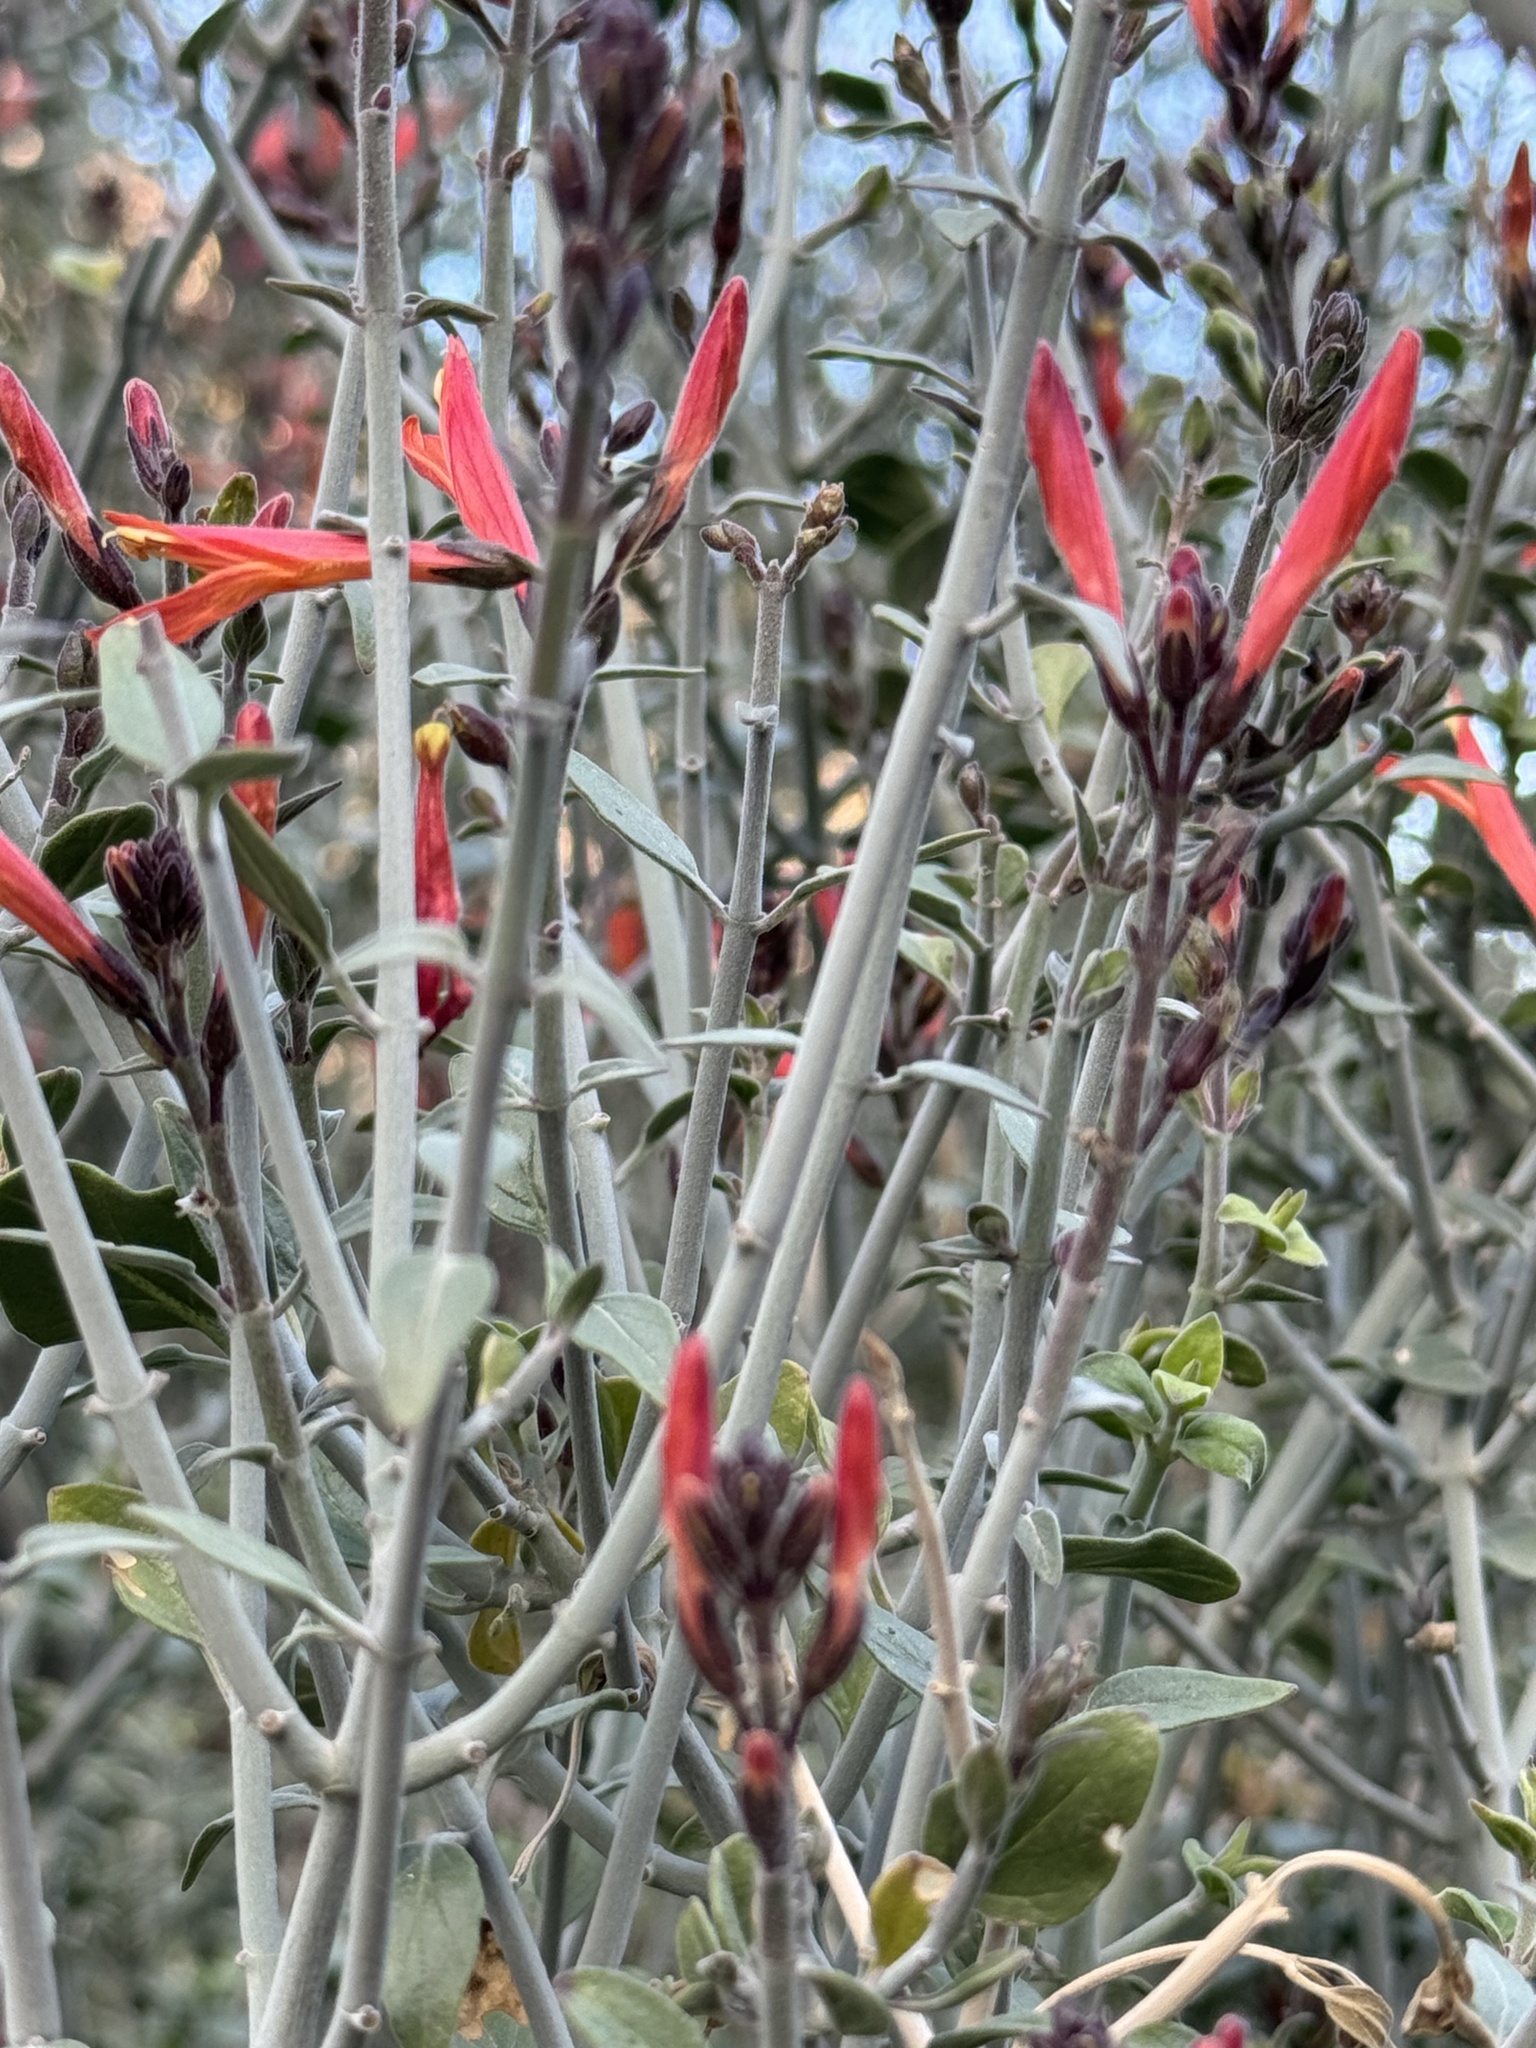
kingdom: Plantae
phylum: Tracheophyta
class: Magnoliopsida
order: Lamiales
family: Acanthaceae
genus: Justicia
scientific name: Justicia californica
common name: Chuparosa-honeysuckle
